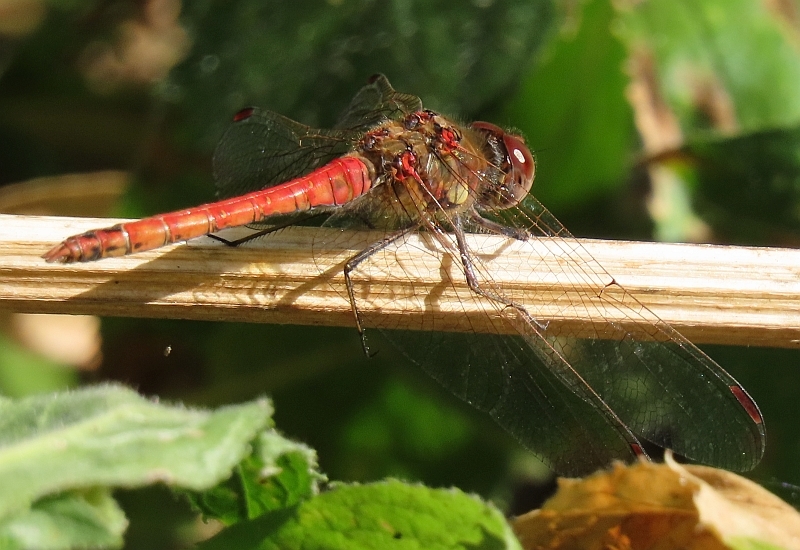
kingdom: Animalia
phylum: Arthropoda
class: Insecta
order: Odonata
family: Libellulidae
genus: Sympetrum
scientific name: Sympetrum striolatum
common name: Common darter
